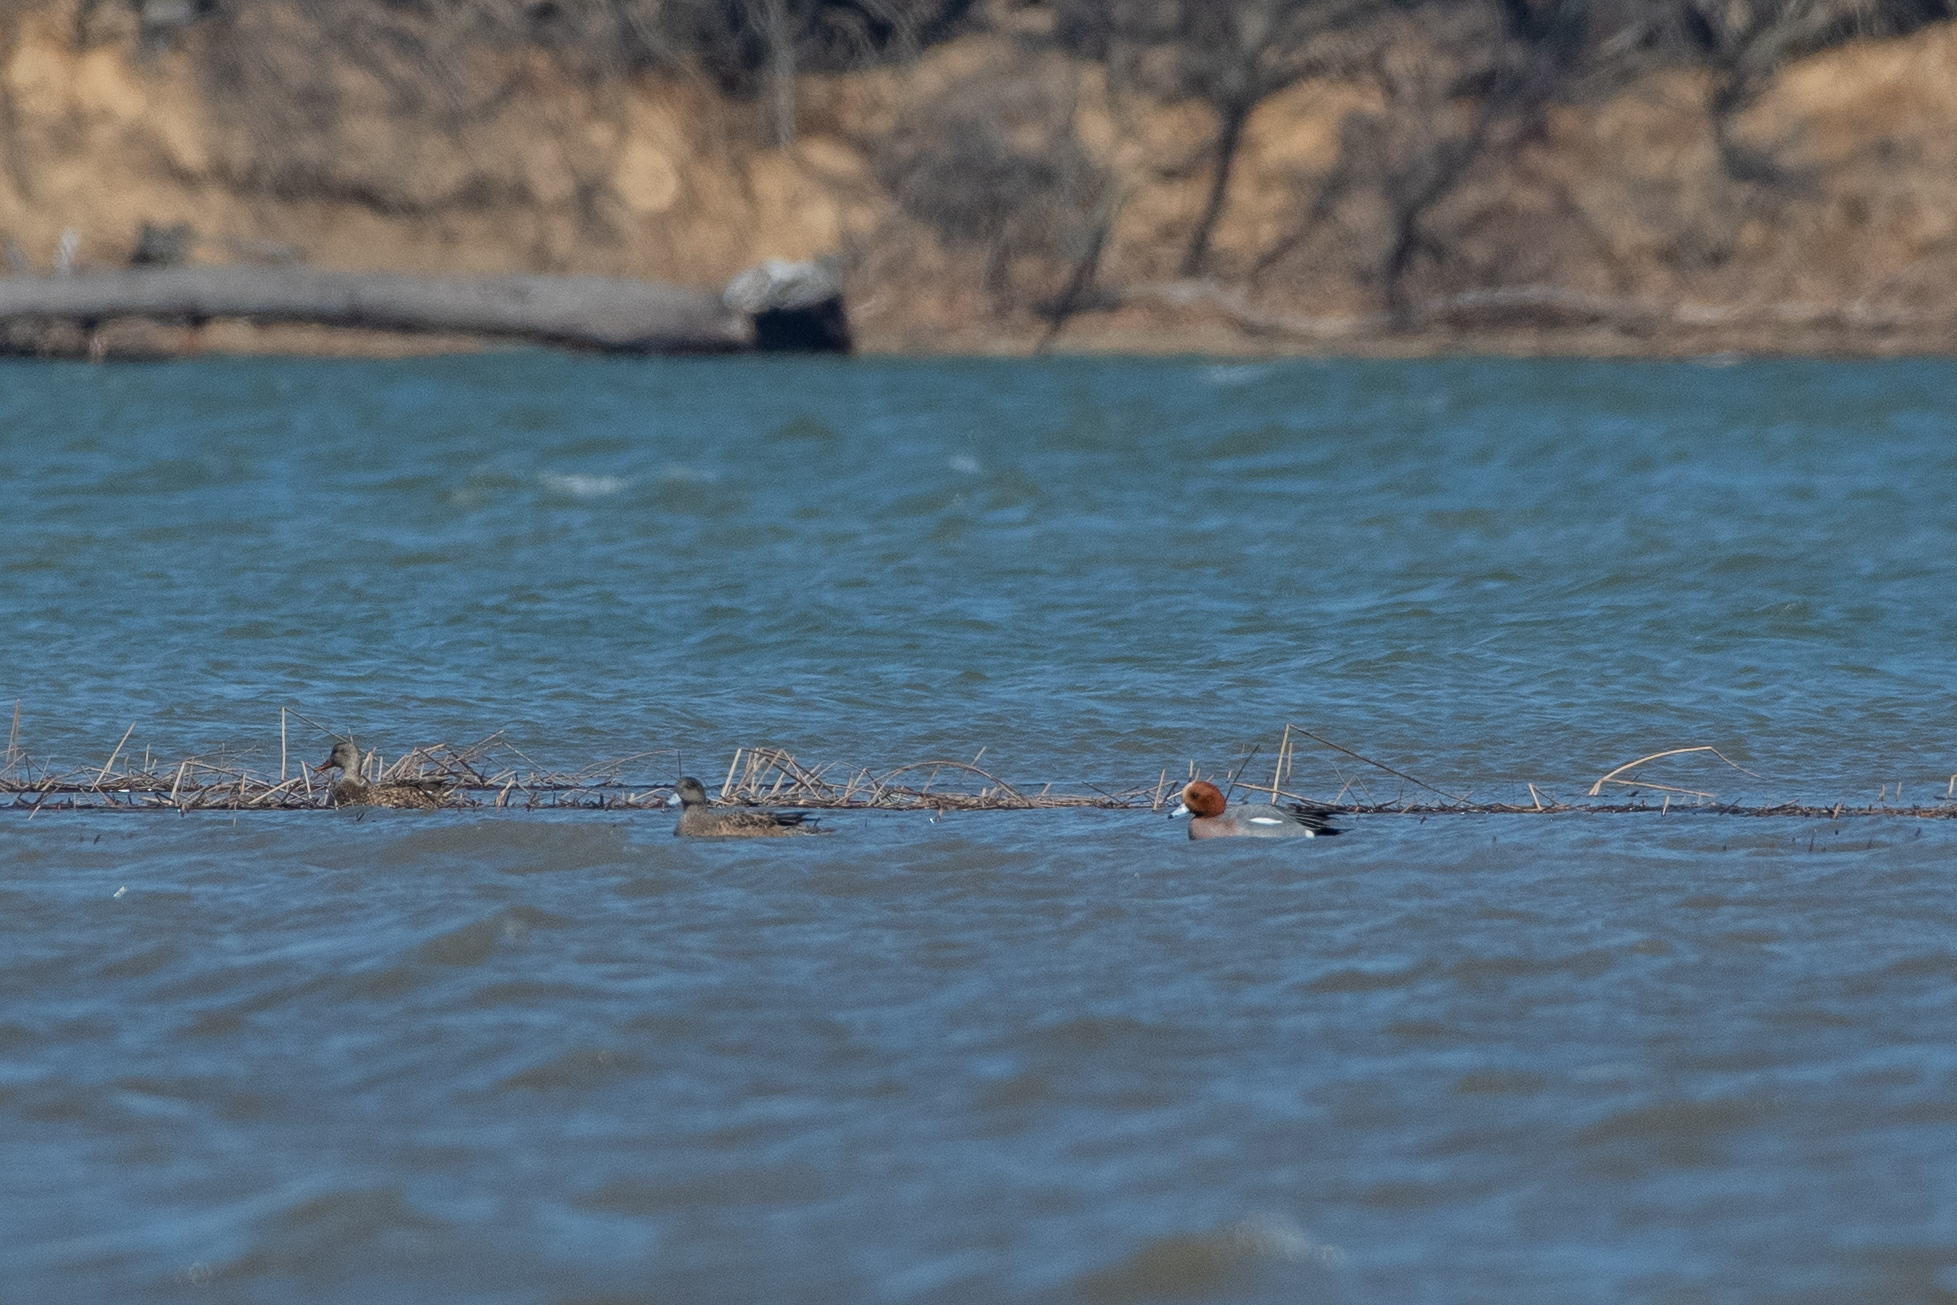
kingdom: Animalia
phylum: Chordata
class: Aves
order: Anseriformes
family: Anatidae
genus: Mareca
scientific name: Mareca penelope
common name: Eurasian wigeon
